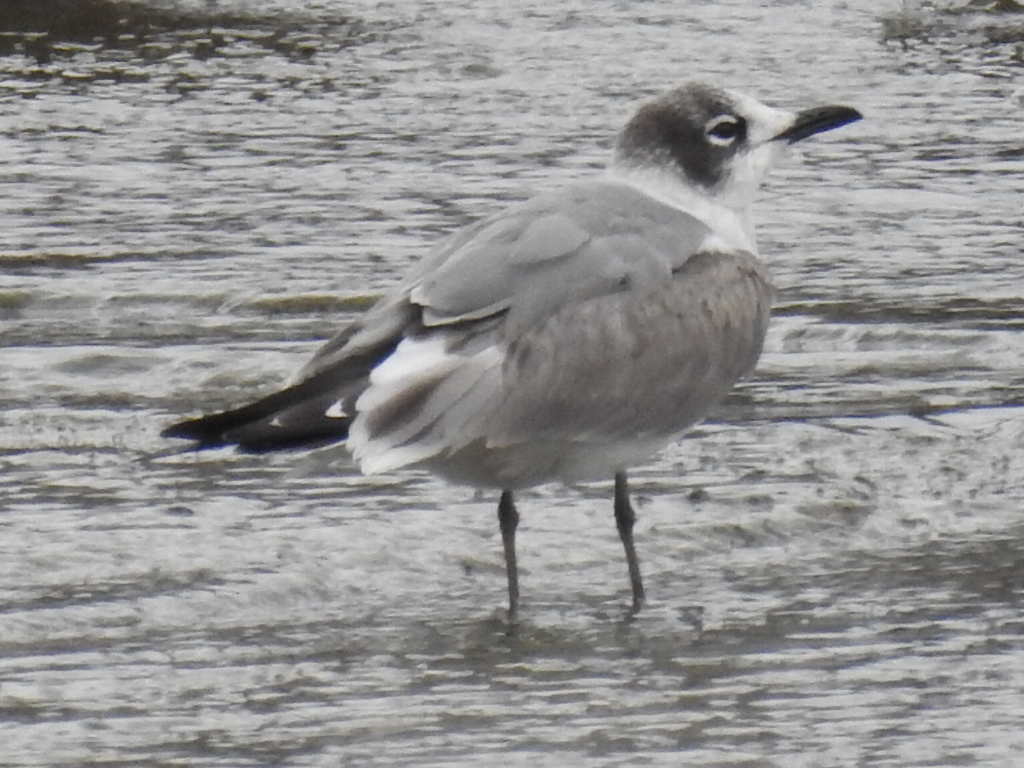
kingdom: Animalia
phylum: Chordata
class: Aves
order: Charadriiformes
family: Laridae
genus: Leucophaeus
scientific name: Leucophaeus pipixcan
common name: Franklin's gull
